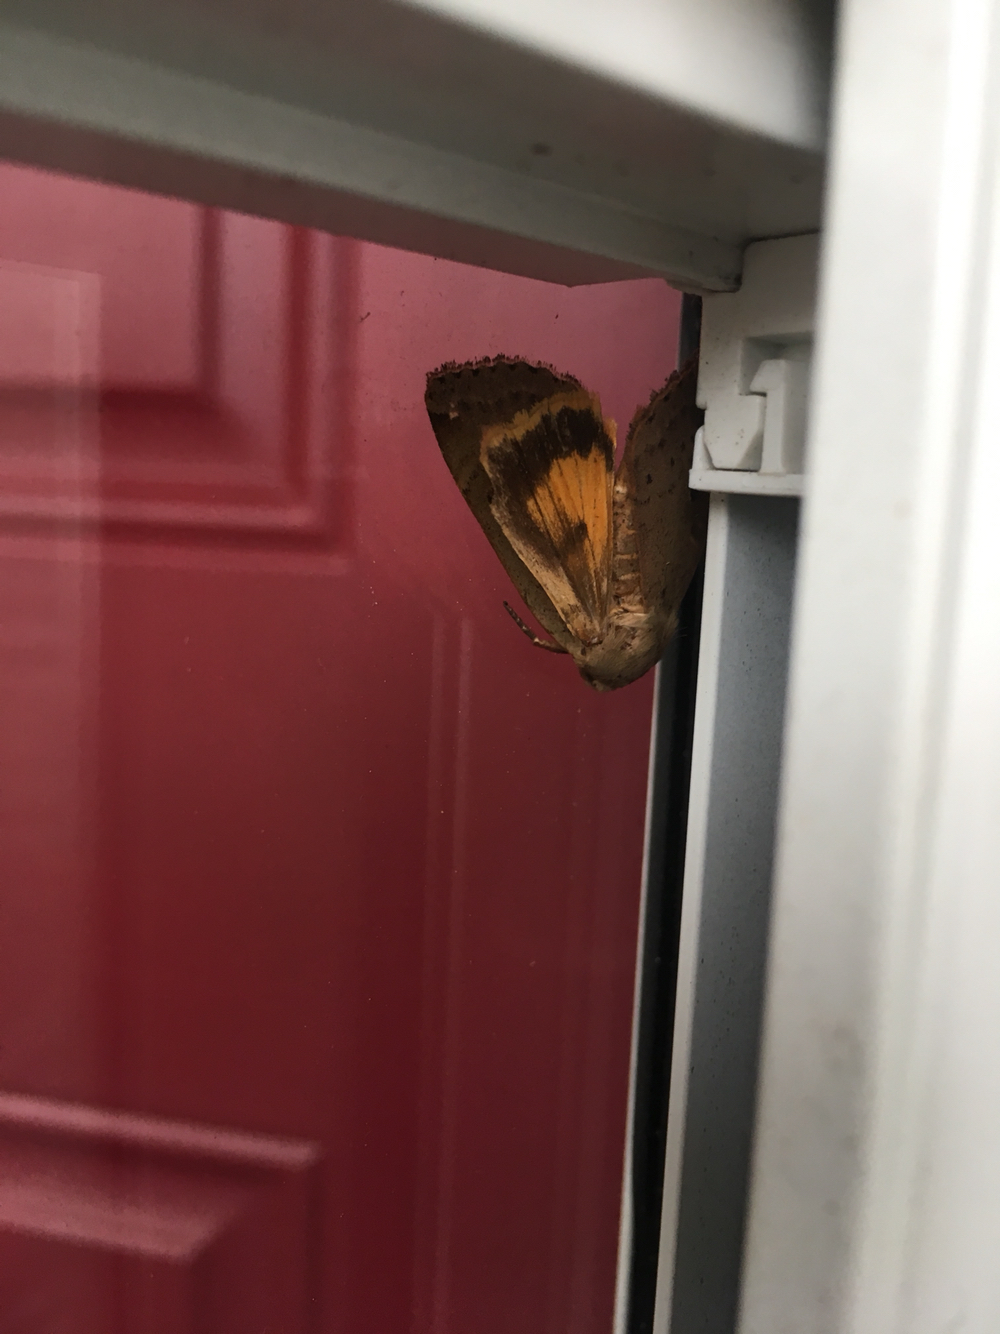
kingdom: Animalia
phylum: Arthropoda
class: Insecta
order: Lepidoptera
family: Noctuidae
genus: Noctua
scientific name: Noctua pronuba
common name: Large yellow underwing
